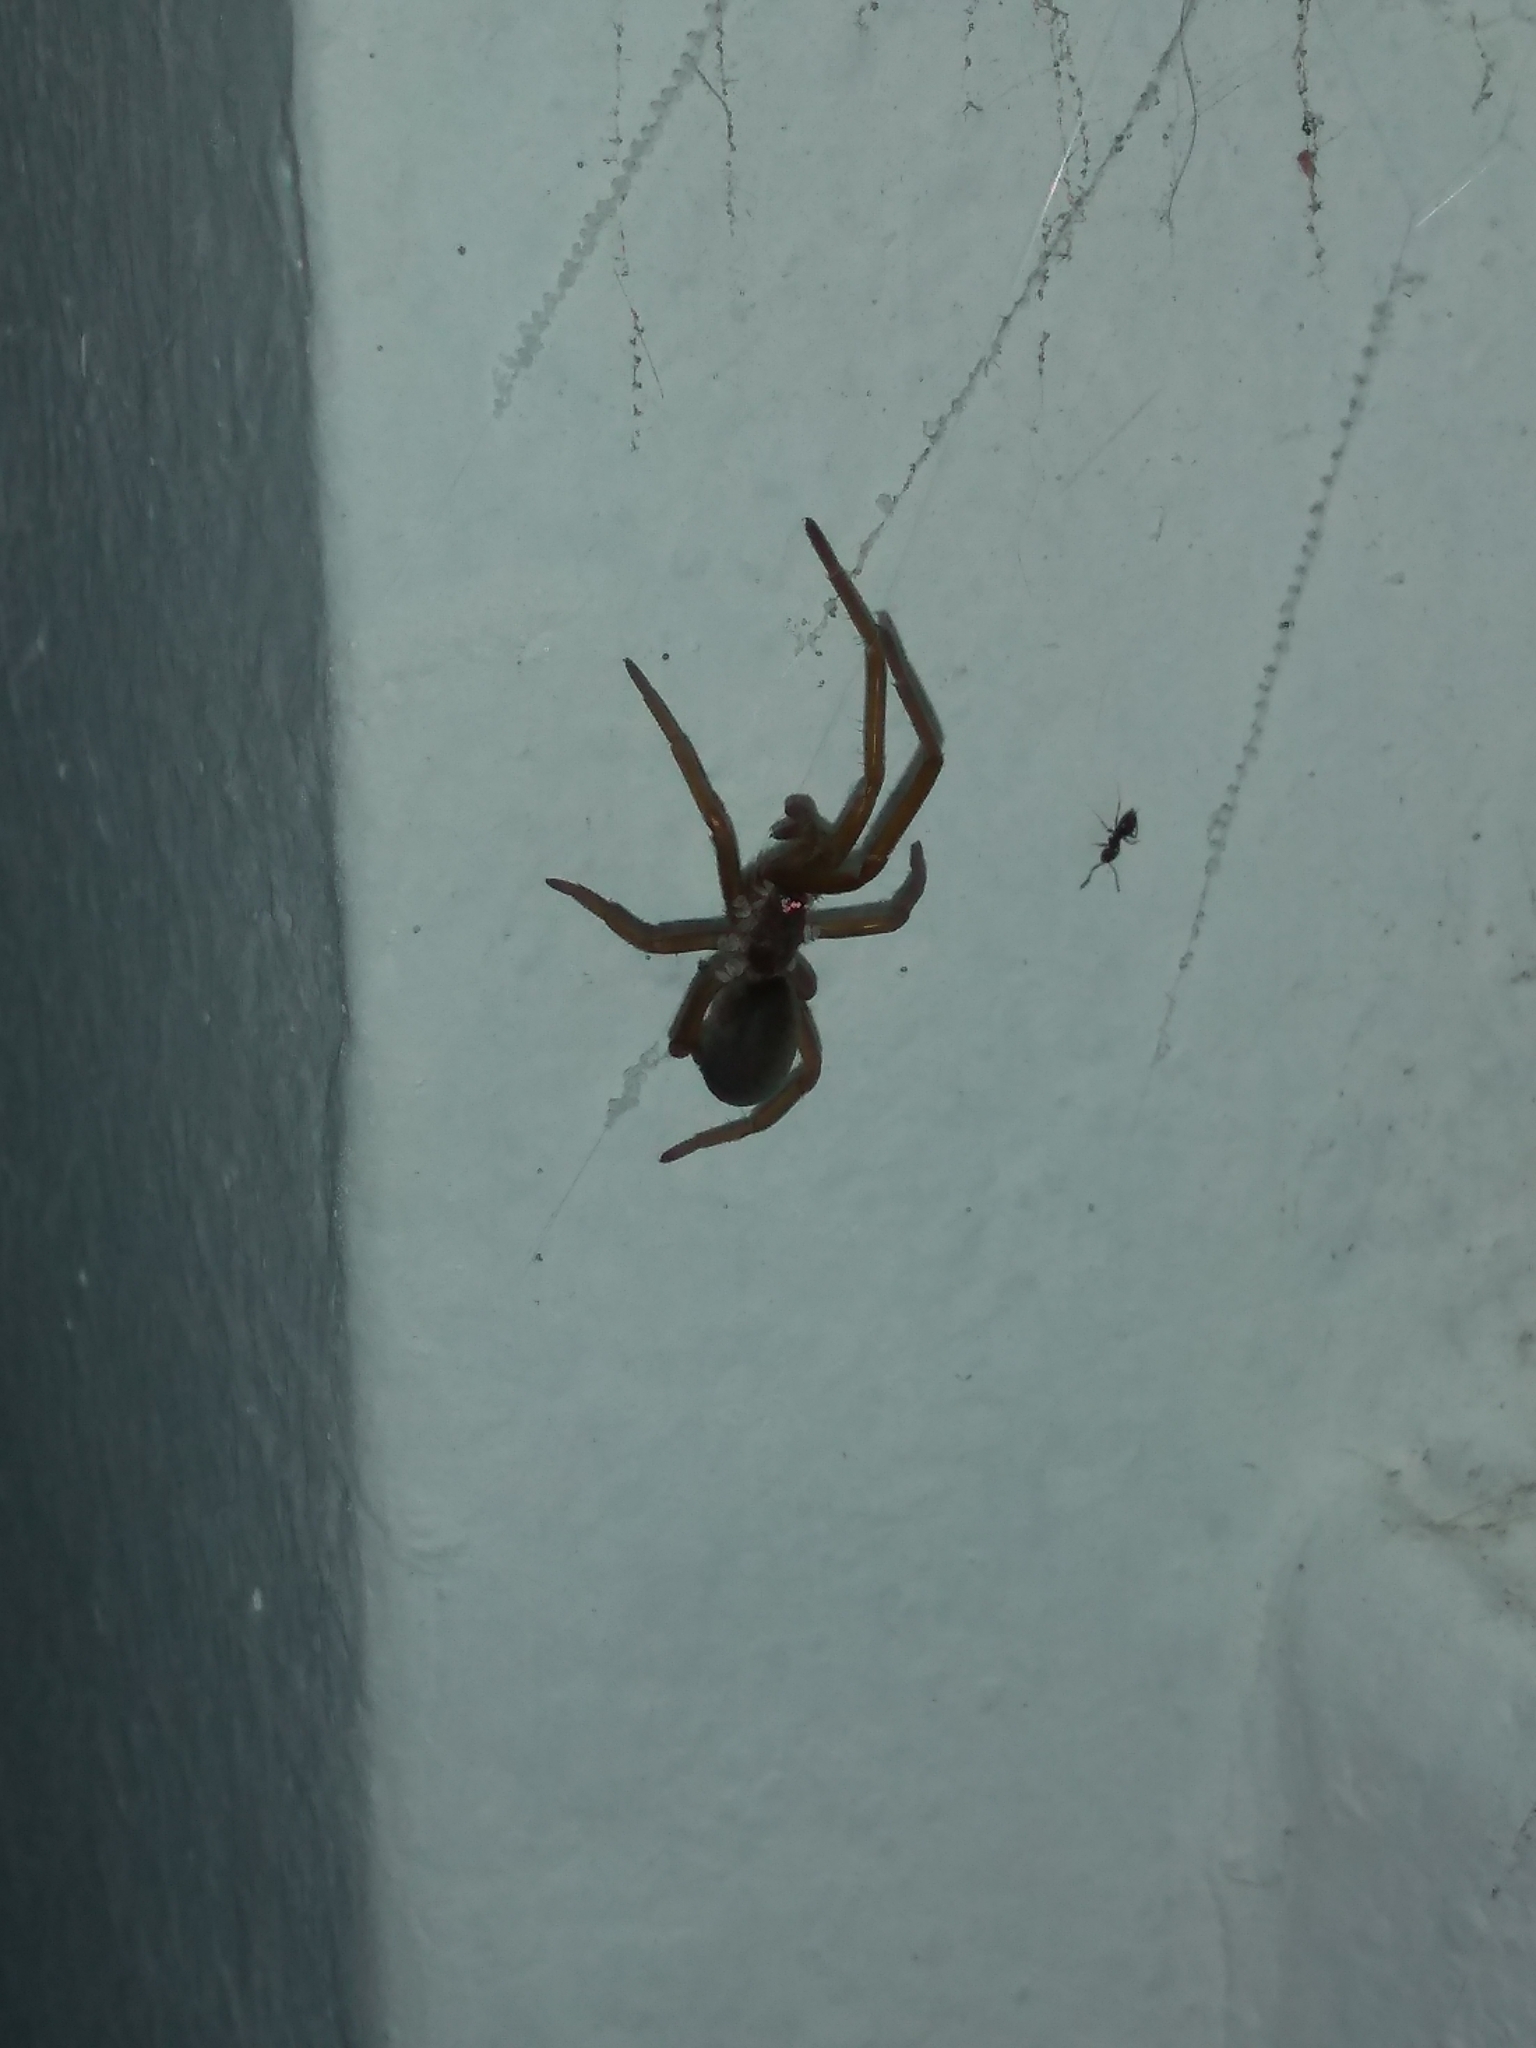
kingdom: Animalia
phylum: Arthropoda
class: Arachnida
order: Araneae
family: Filistatidae
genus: Kukulcania
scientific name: Kukulcania hibernalis
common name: Crevice weaver
